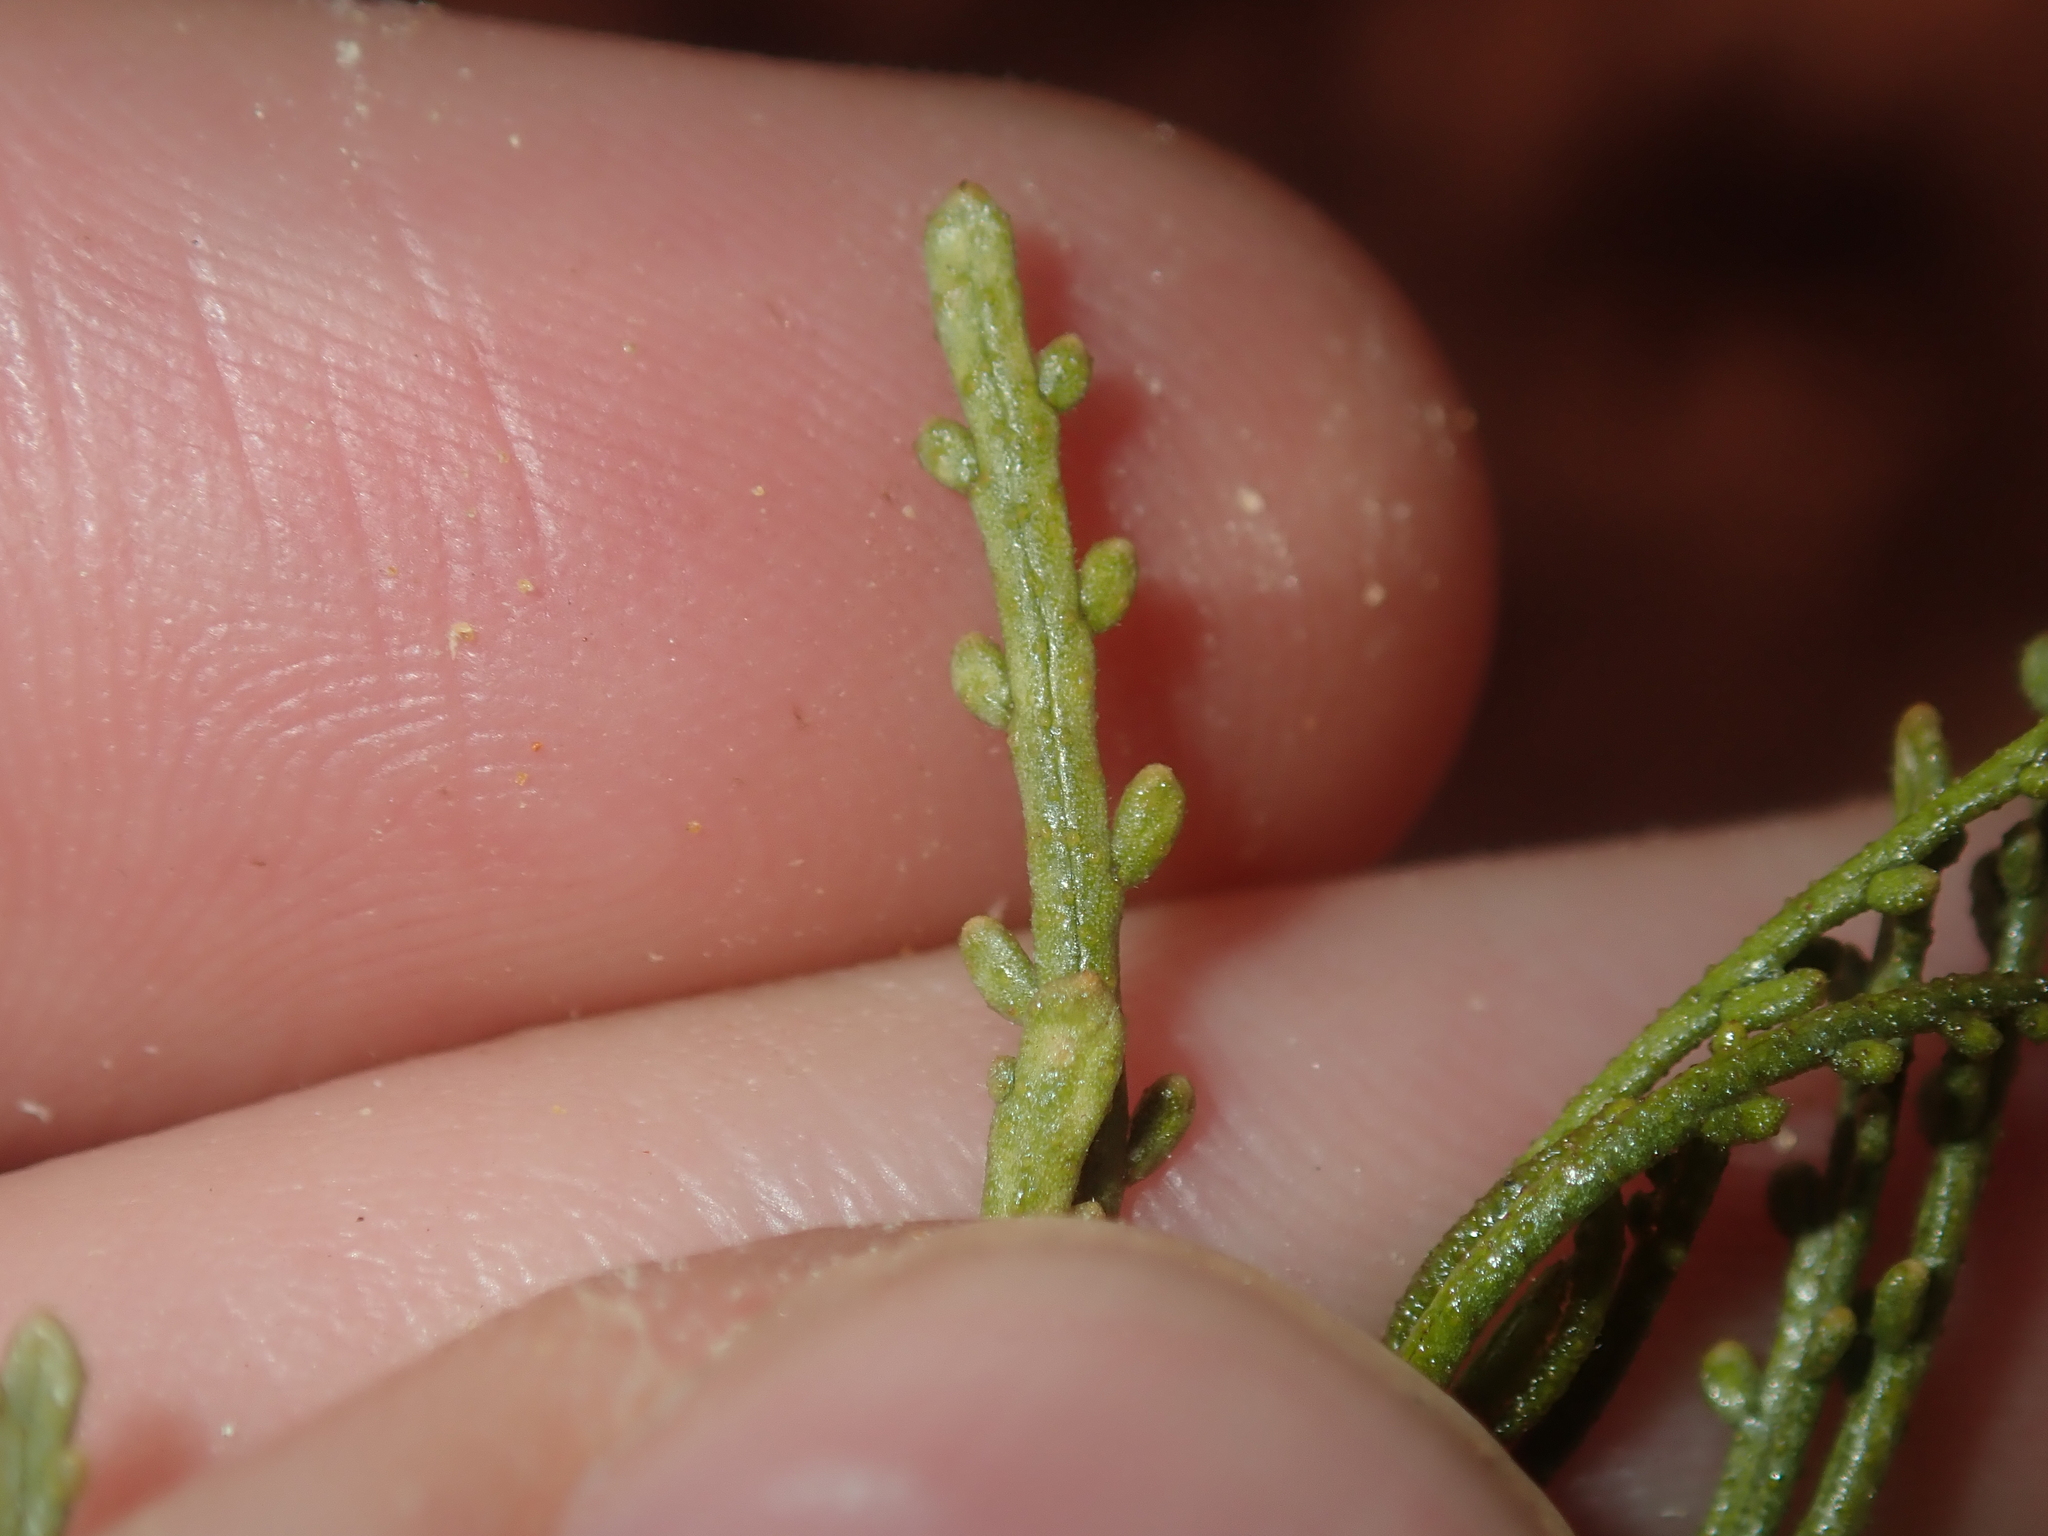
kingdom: Plantae
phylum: Tracheophyta
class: Magnoliopsida
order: Sapindales
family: Sapindaceae
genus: Dodonaea
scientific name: Dodonaea lobulata
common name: Lobe-leaf hopbush
